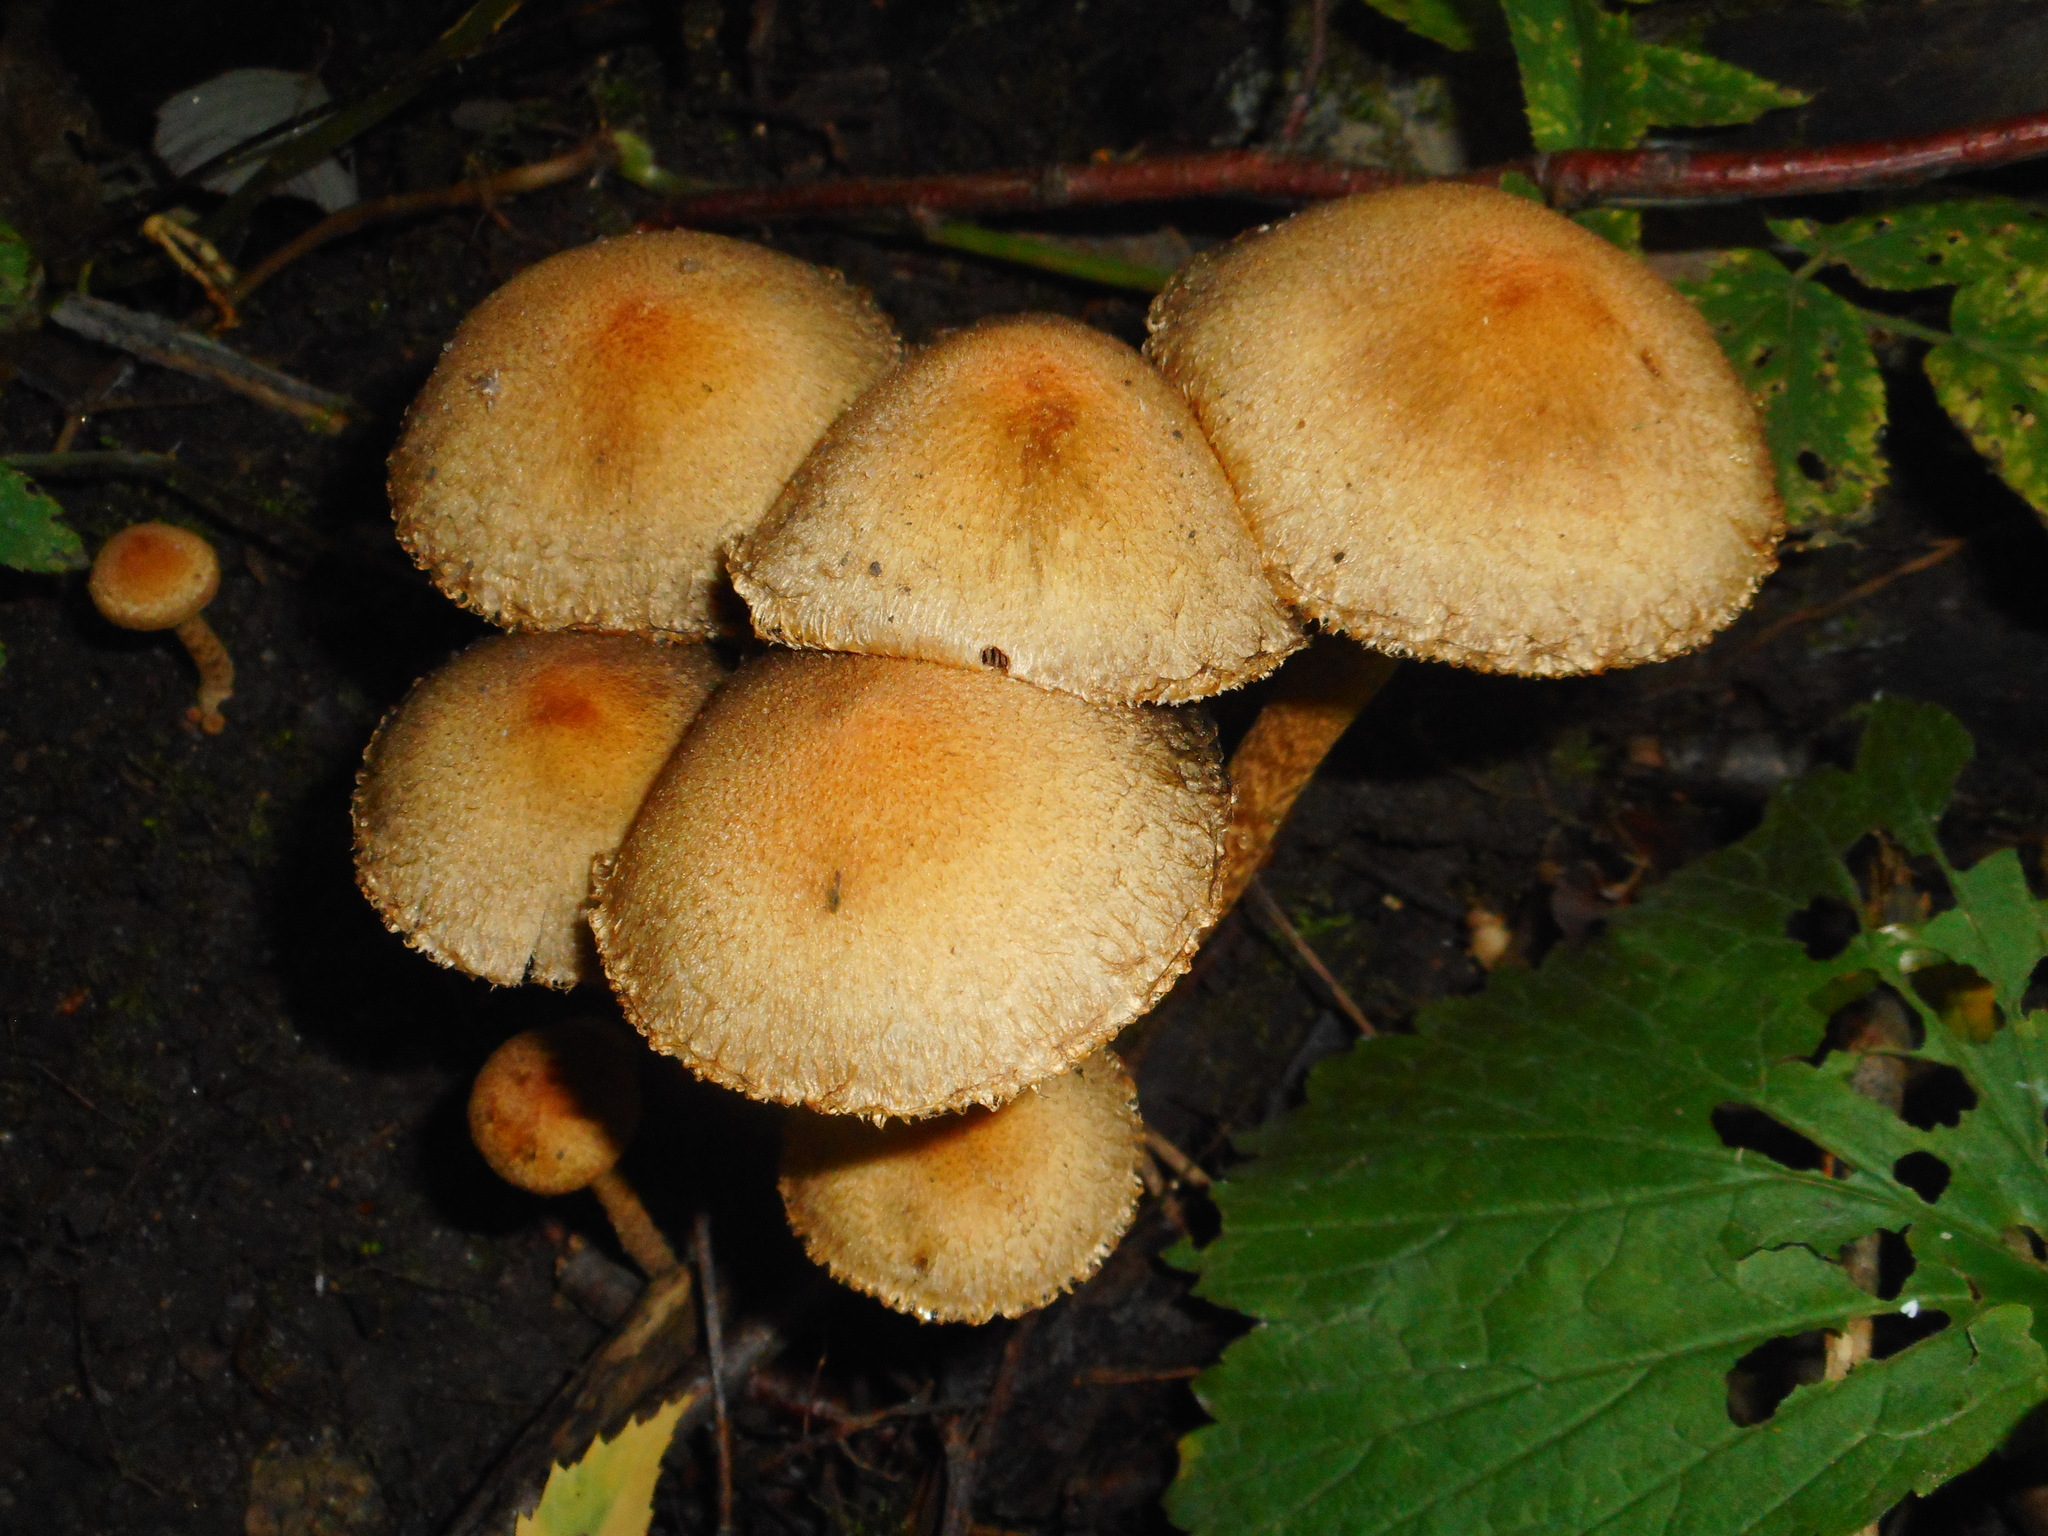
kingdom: Fungi
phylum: Basidiomycota
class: Agaricomycetes
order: Agaricales
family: Psathyrellaceae
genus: Lacrymaria
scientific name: Lacrymaria lacrymabunda
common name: Weeping widow
